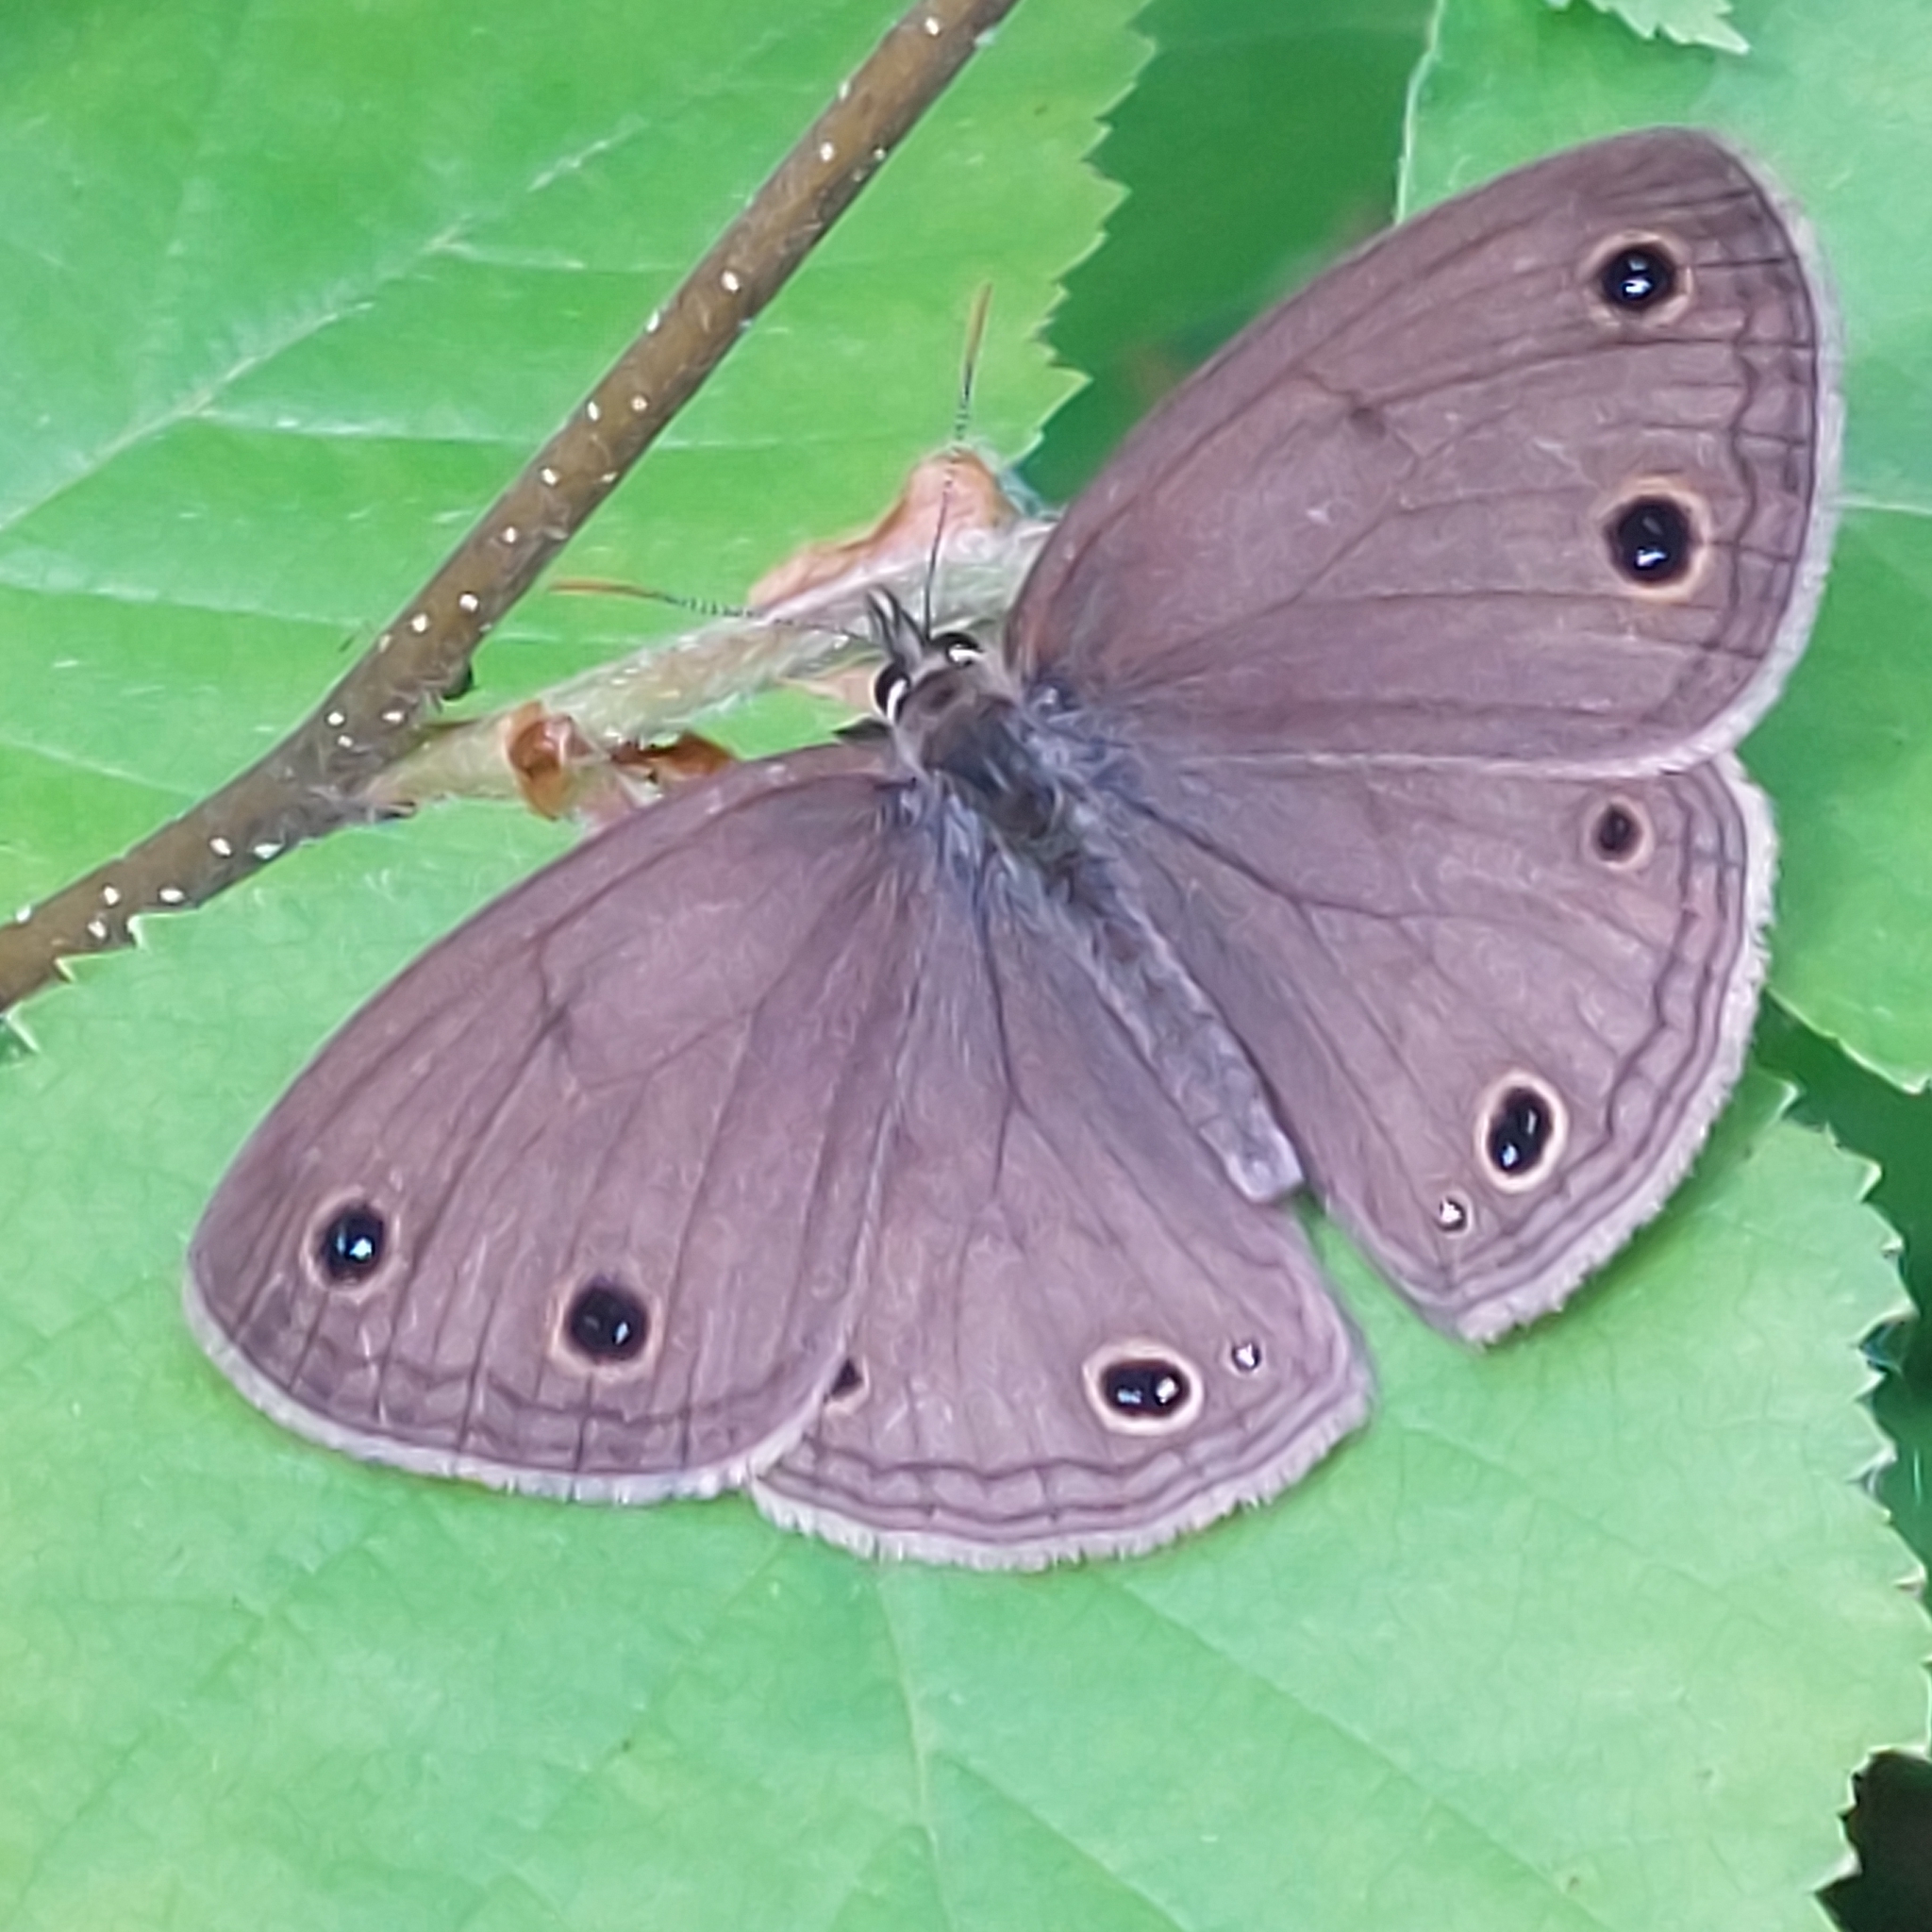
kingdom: Animalia
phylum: Arthropoda
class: Insecta
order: Lepidoptera
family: Nymphalidae
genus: Euptychia
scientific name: Euptychia cymela
